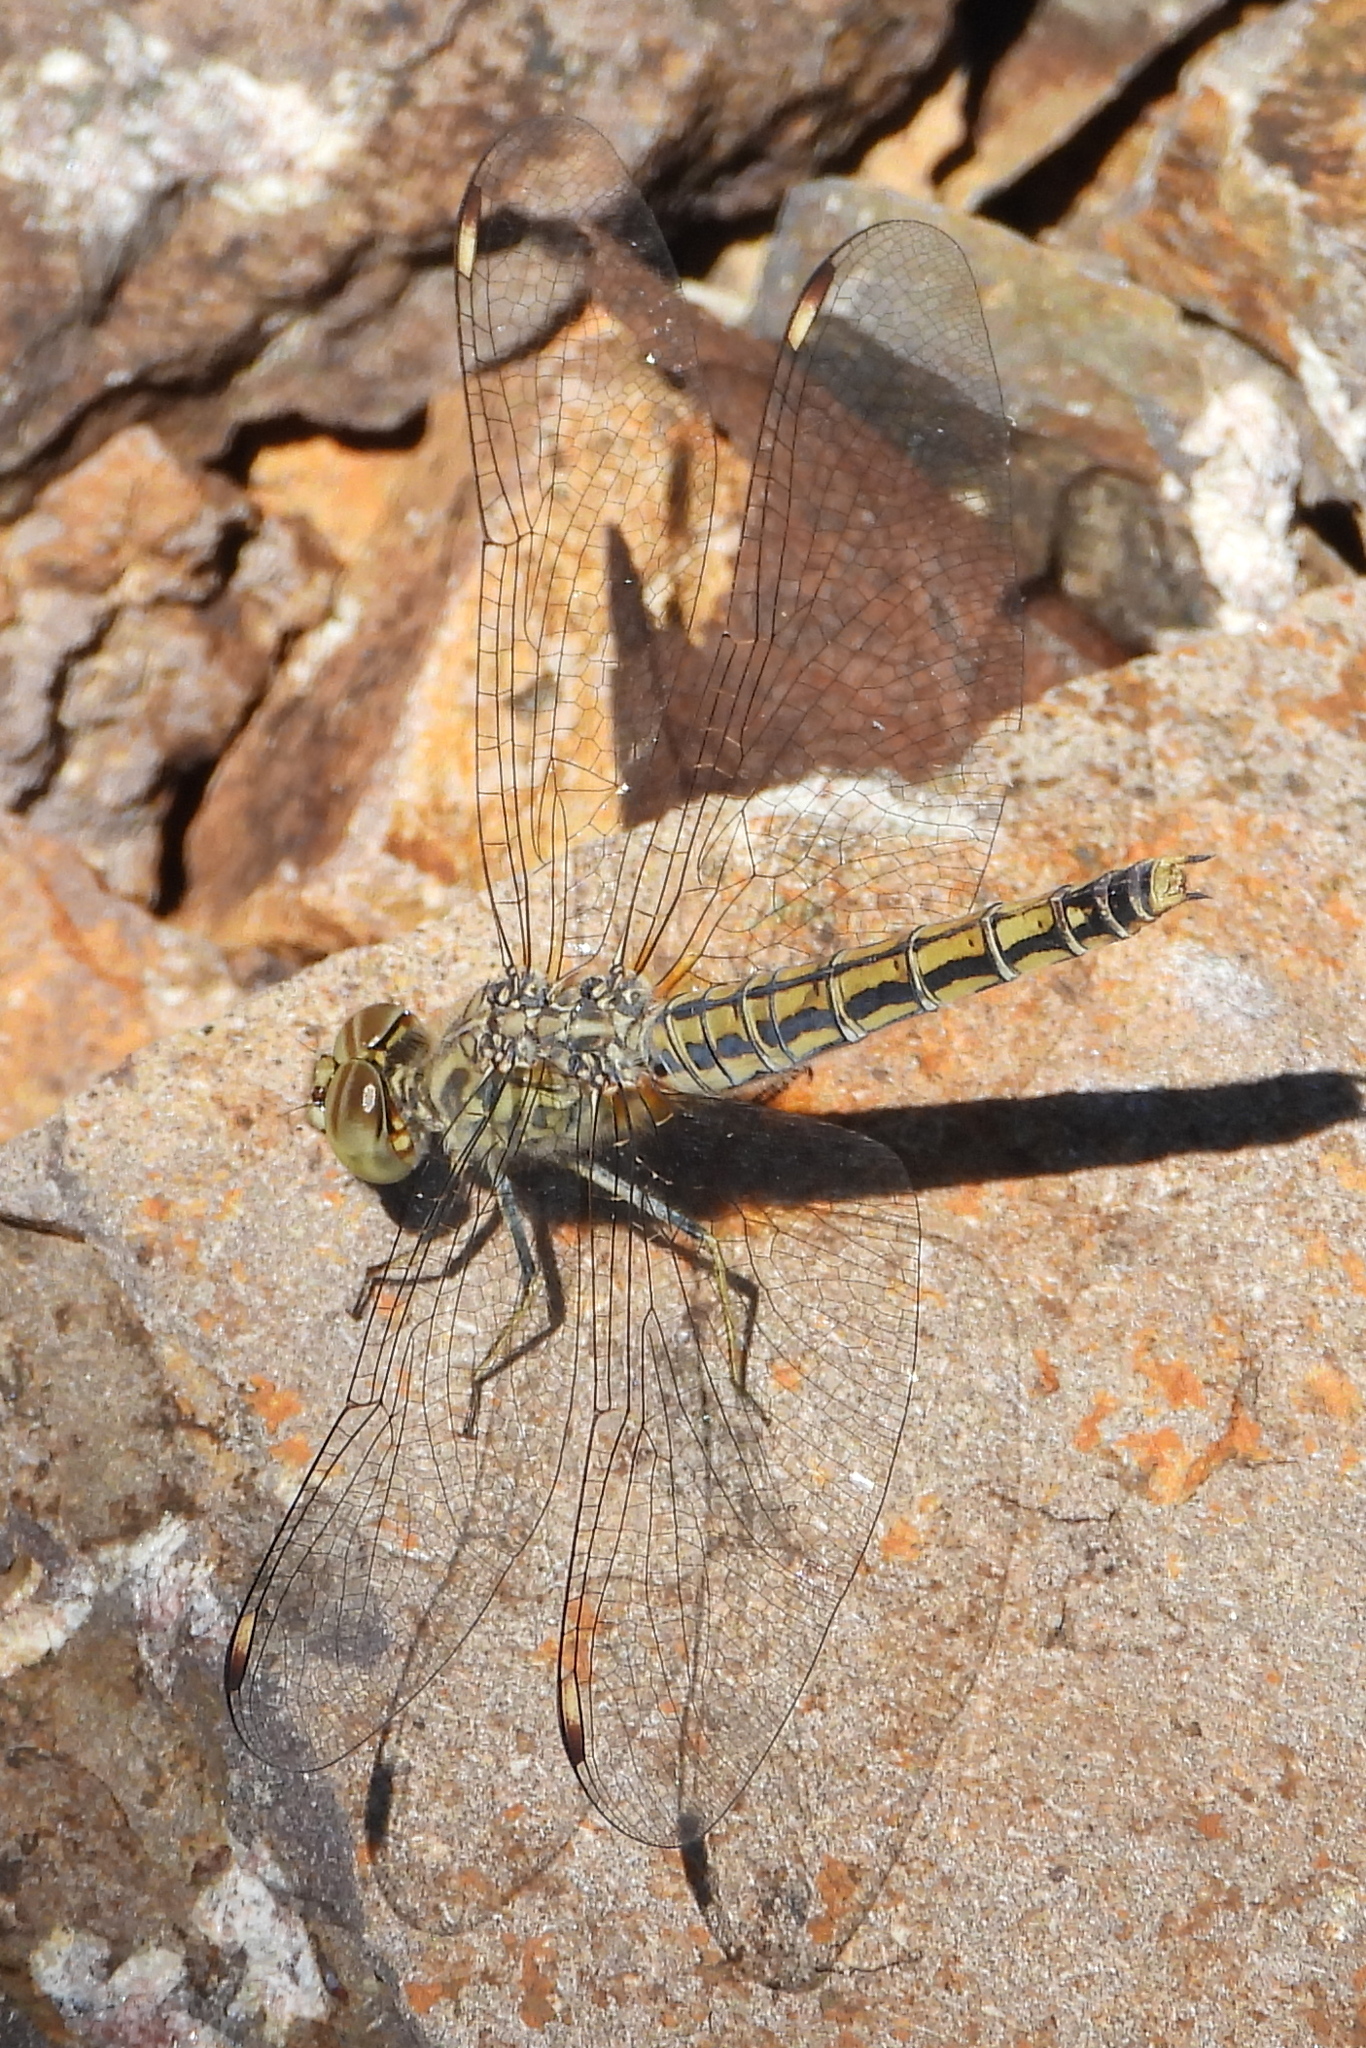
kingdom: Animalia
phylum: Arthropoda
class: Insecta
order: Odonata
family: Libellulidae
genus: Brachythemis
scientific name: Brachythemis leucosticta
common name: Banded groundling
